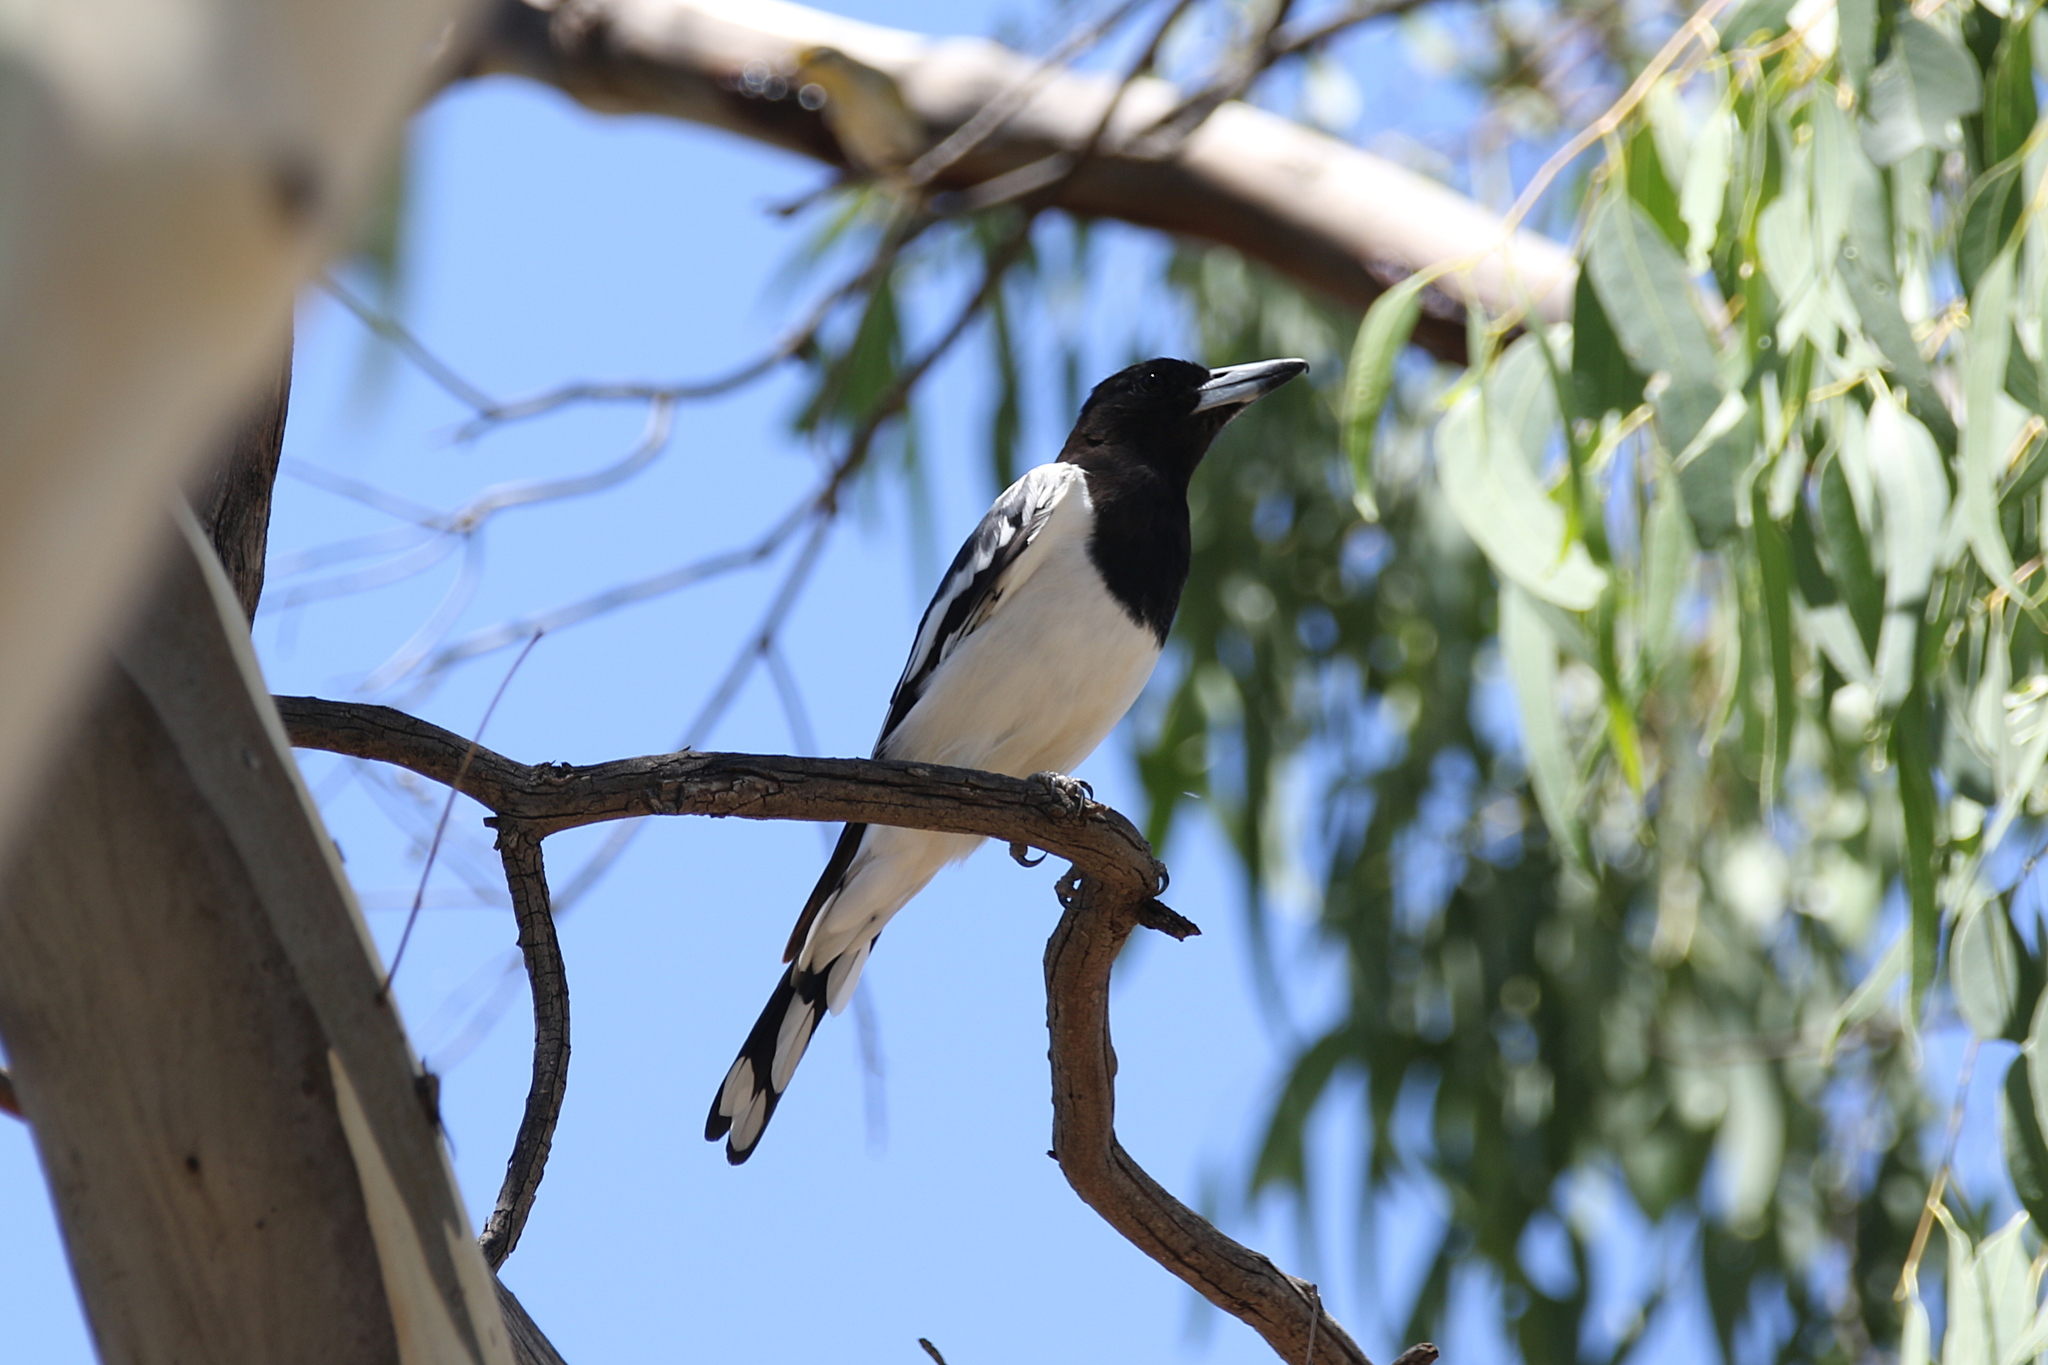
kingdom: Animalia
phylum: Chordata
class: Aves
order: Passeriformes
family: Cracticidae
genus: Cracticus
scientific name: Cracticus nigrogularis
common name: Pied butcherbird
